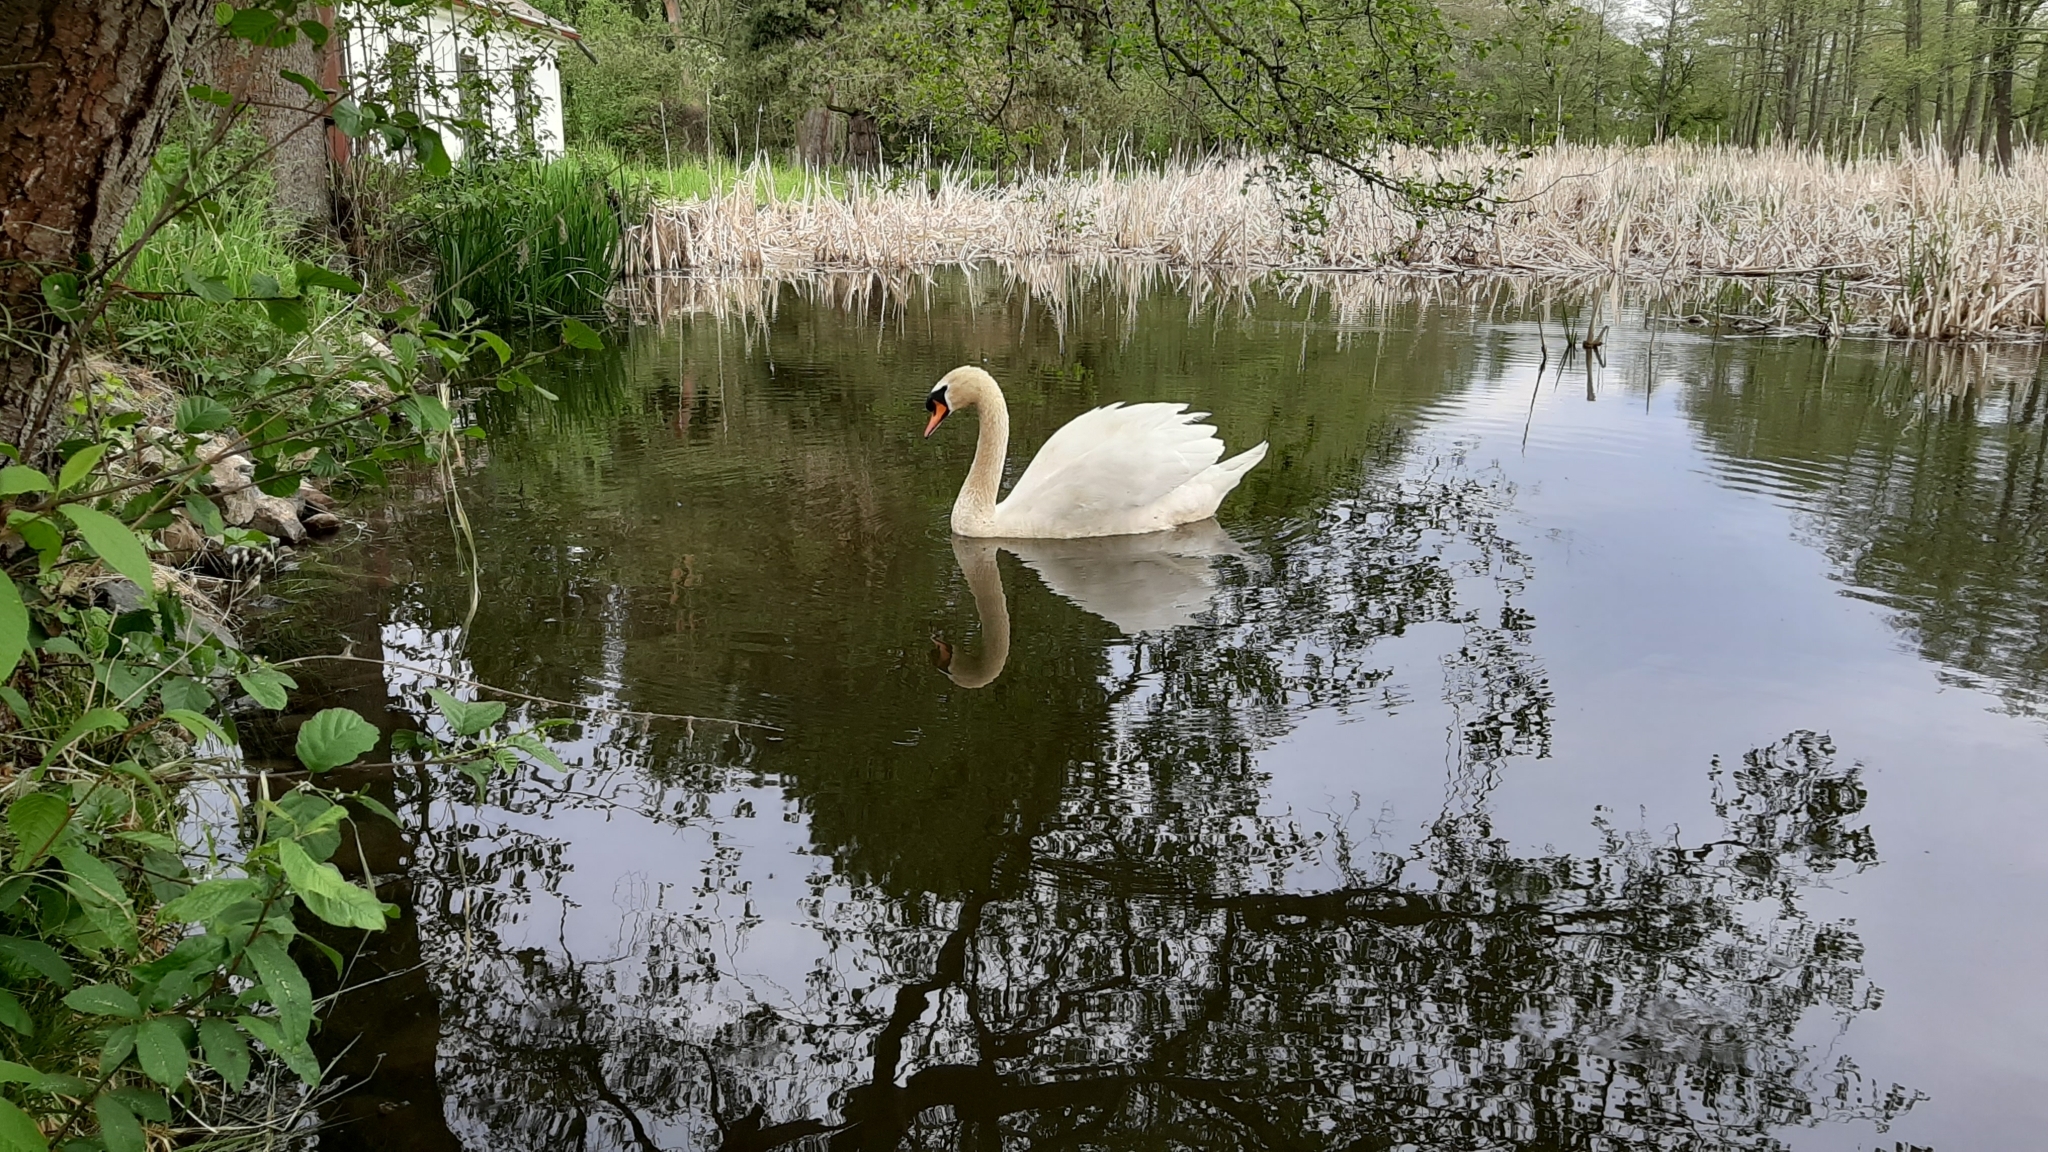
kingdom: Animalia
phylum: Chordata
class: Aves
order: Anseriformes
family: Anatidae
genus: Cygnus
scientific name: Cygnus olor
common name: Mute swan
